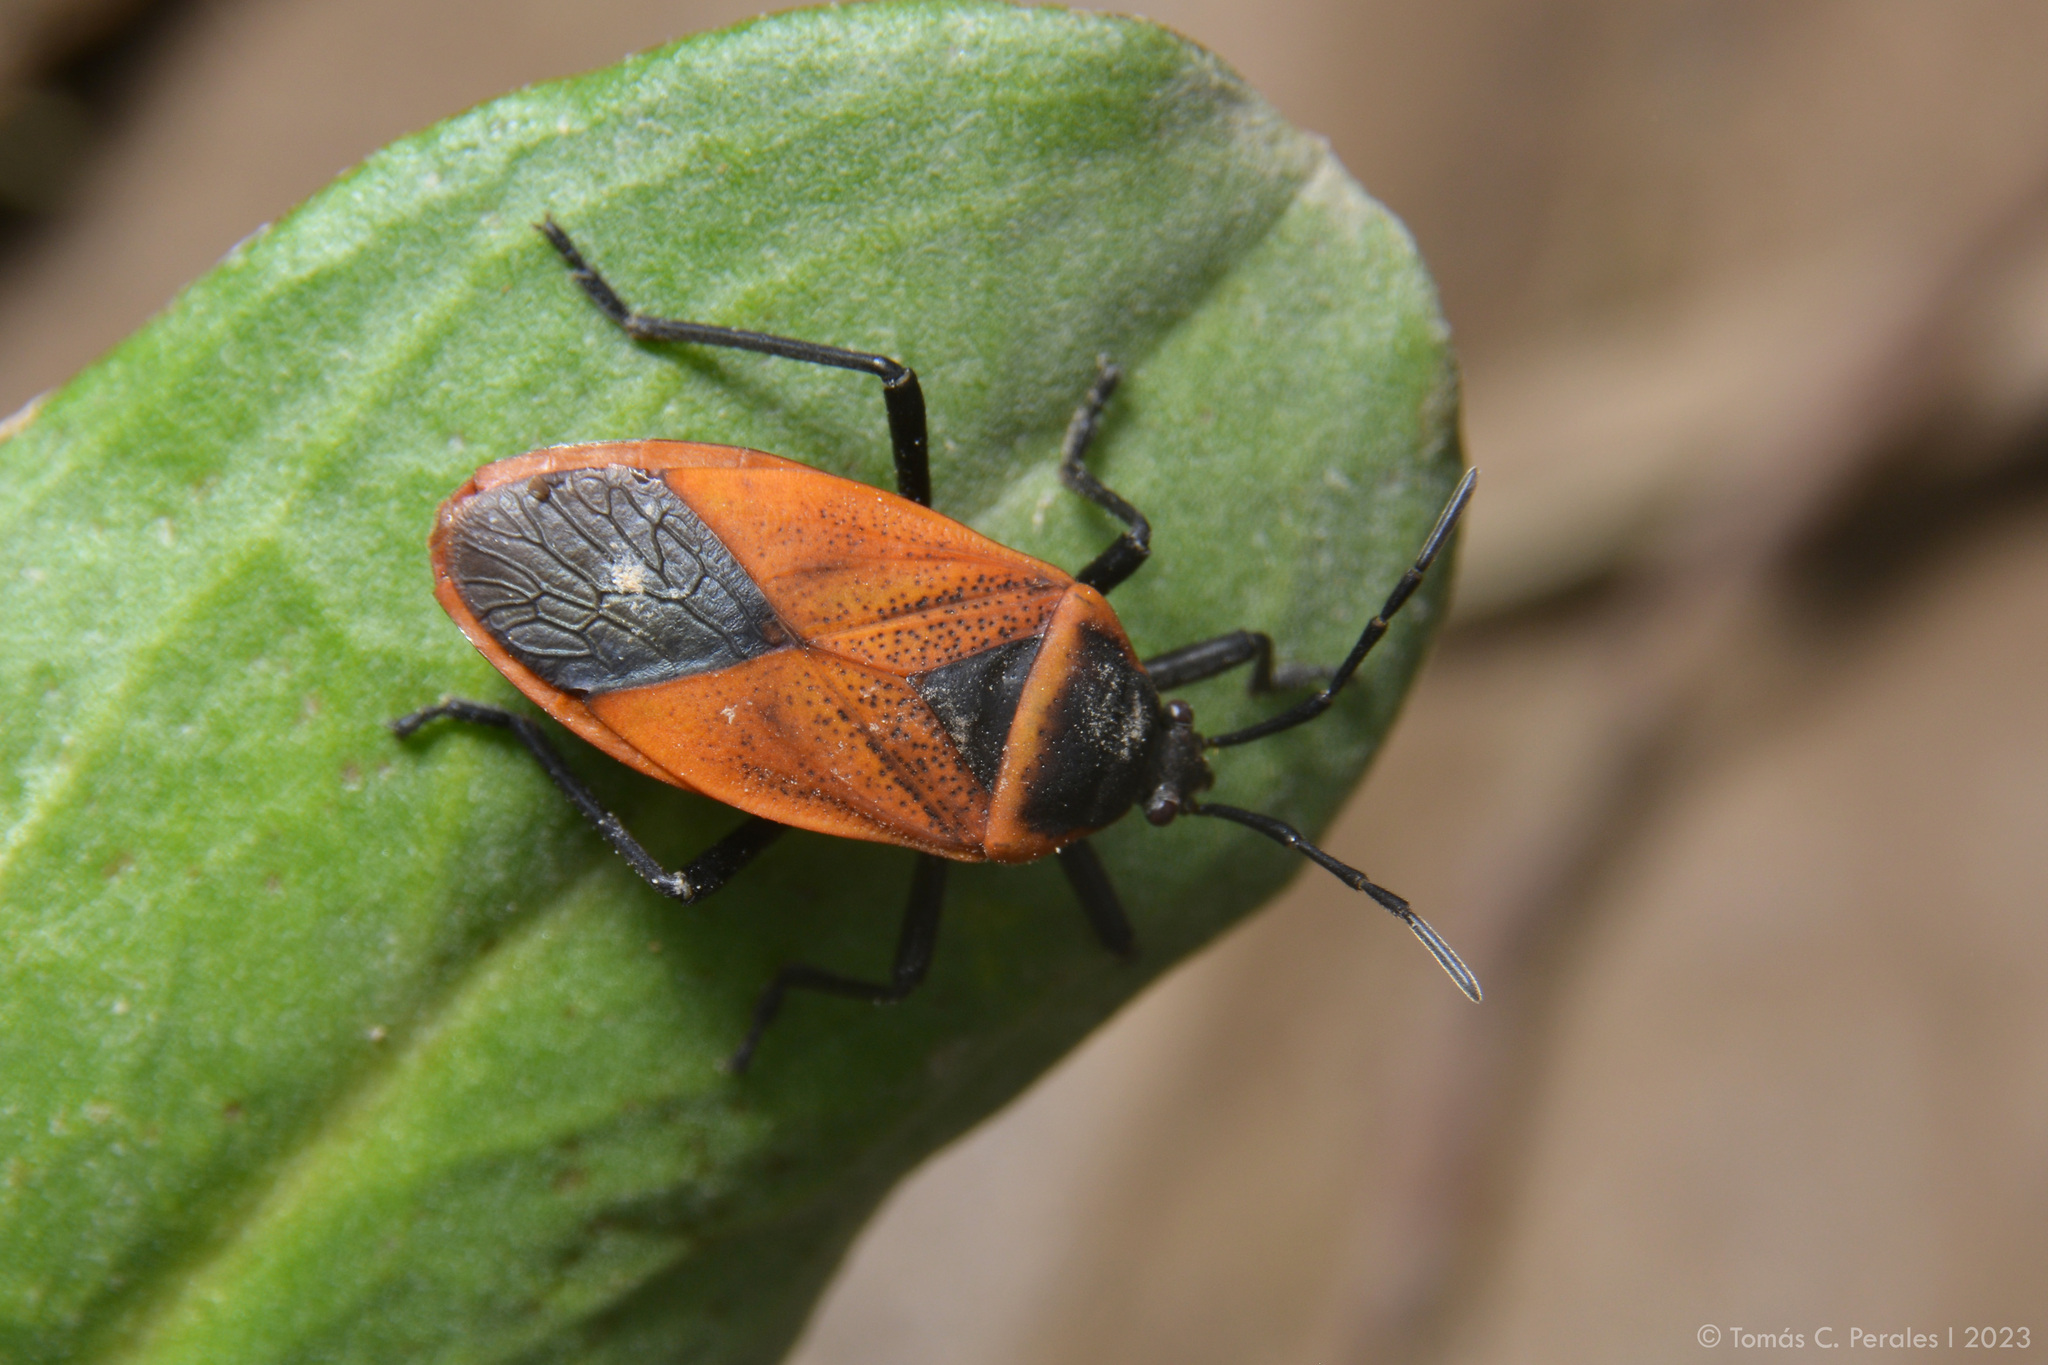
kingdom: Animalia
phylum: Arthropoda
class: Insecta
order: Hemiptera
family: Largidae
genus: Largus
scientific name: Largus rufipennis
